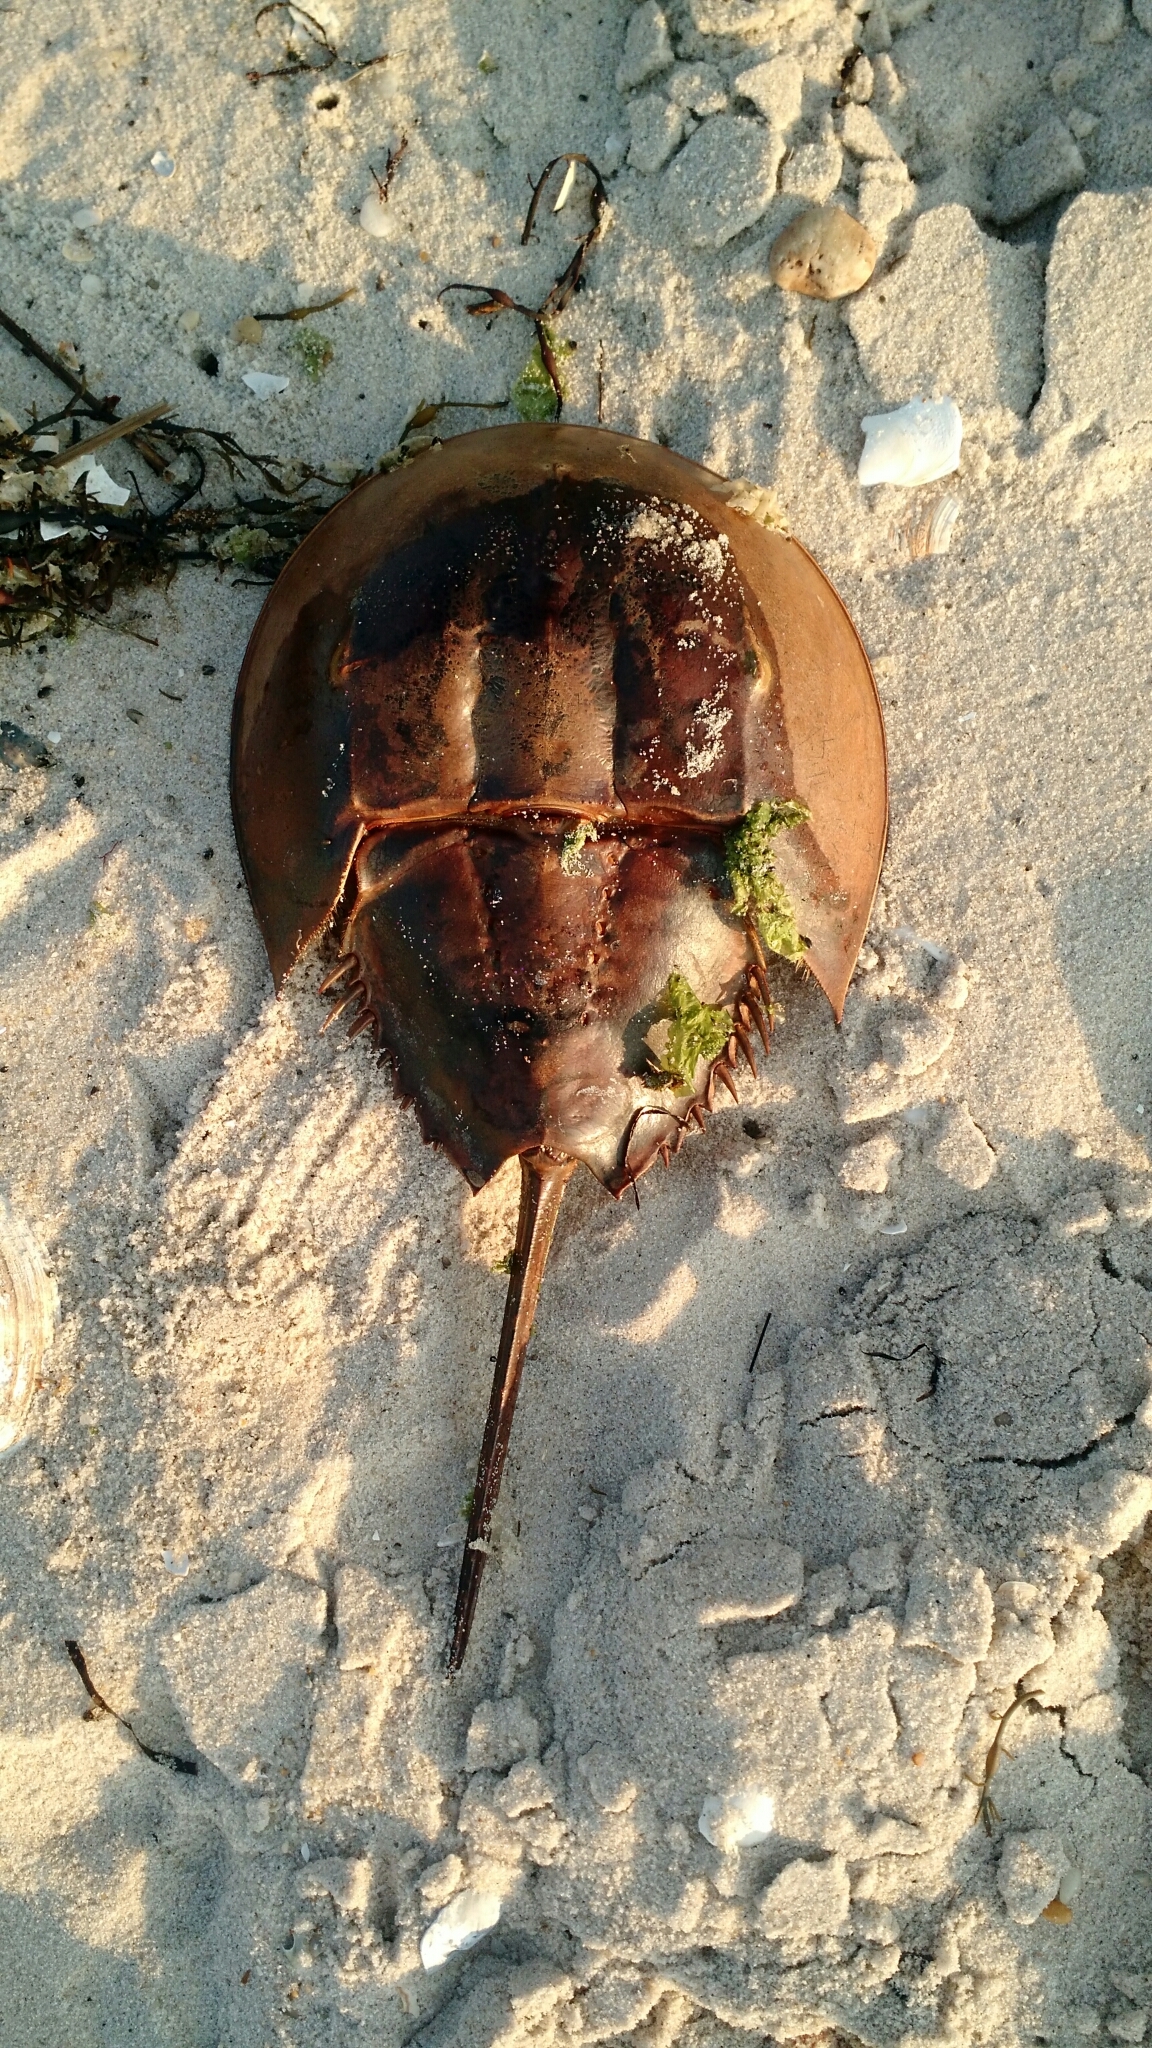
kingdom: Animalia
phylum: Arthropoda
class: Merostomata
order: Xiphosurida
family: Limulidae
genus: Limulus
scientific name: Limulus polyphemus
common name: Horseshoe crab
